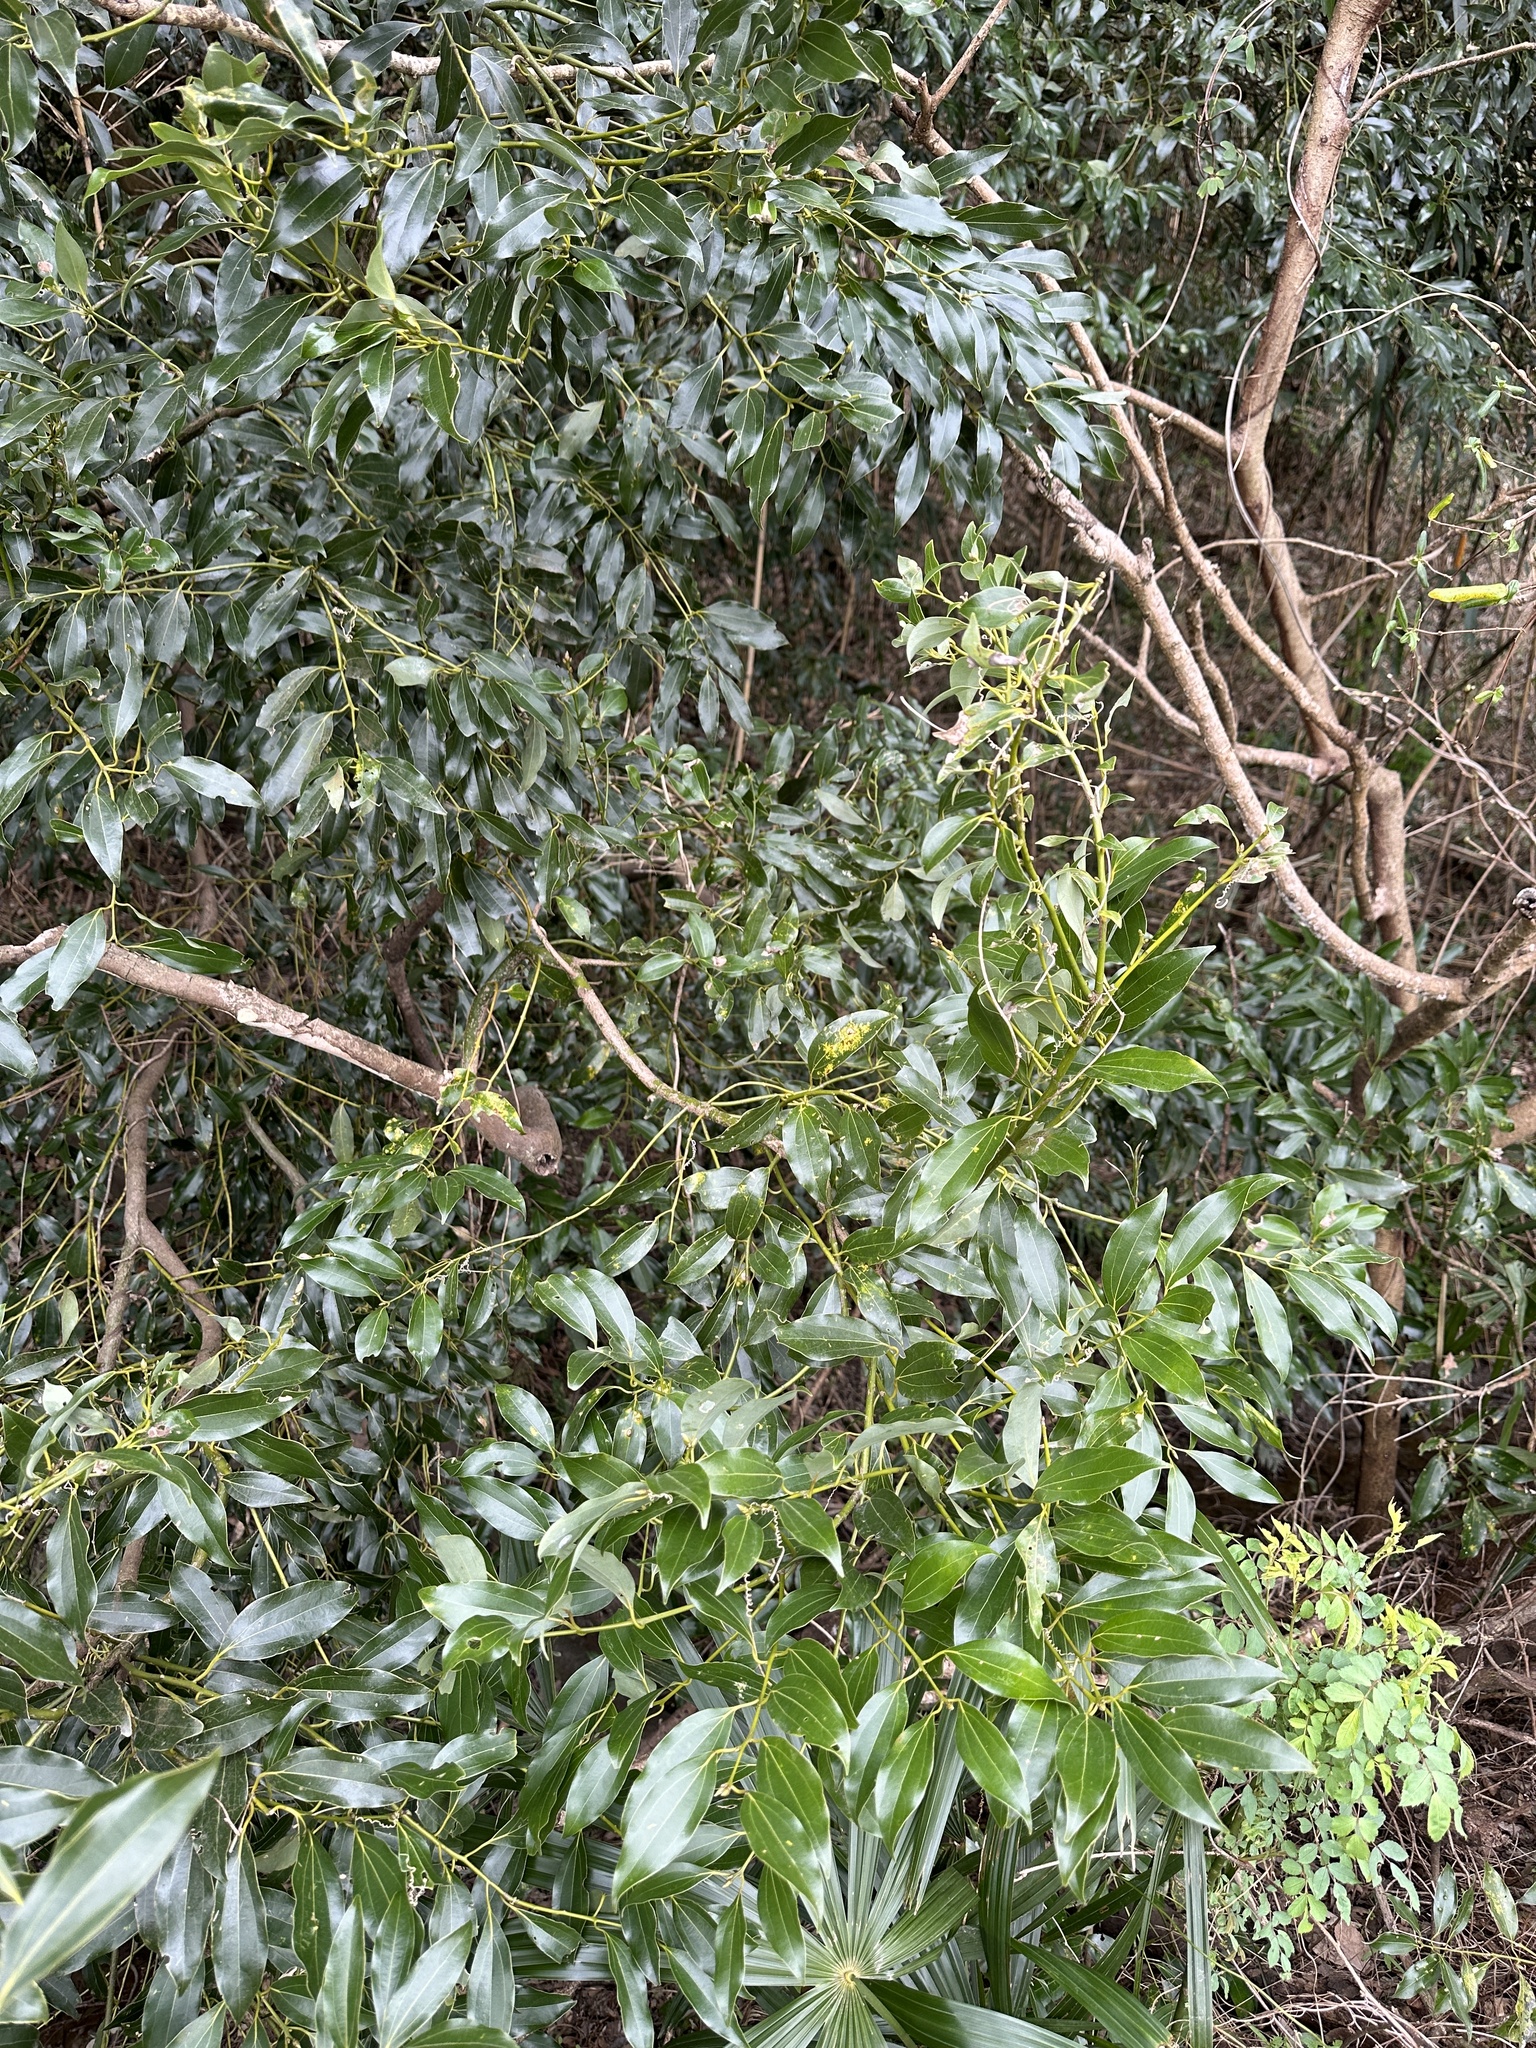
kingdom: Plantae
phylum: Tracheophyta
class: Magnoliopsida
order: Laurales
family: Lauraceae
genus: Cinnamomum
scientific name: Cinnamomum chekiangense
